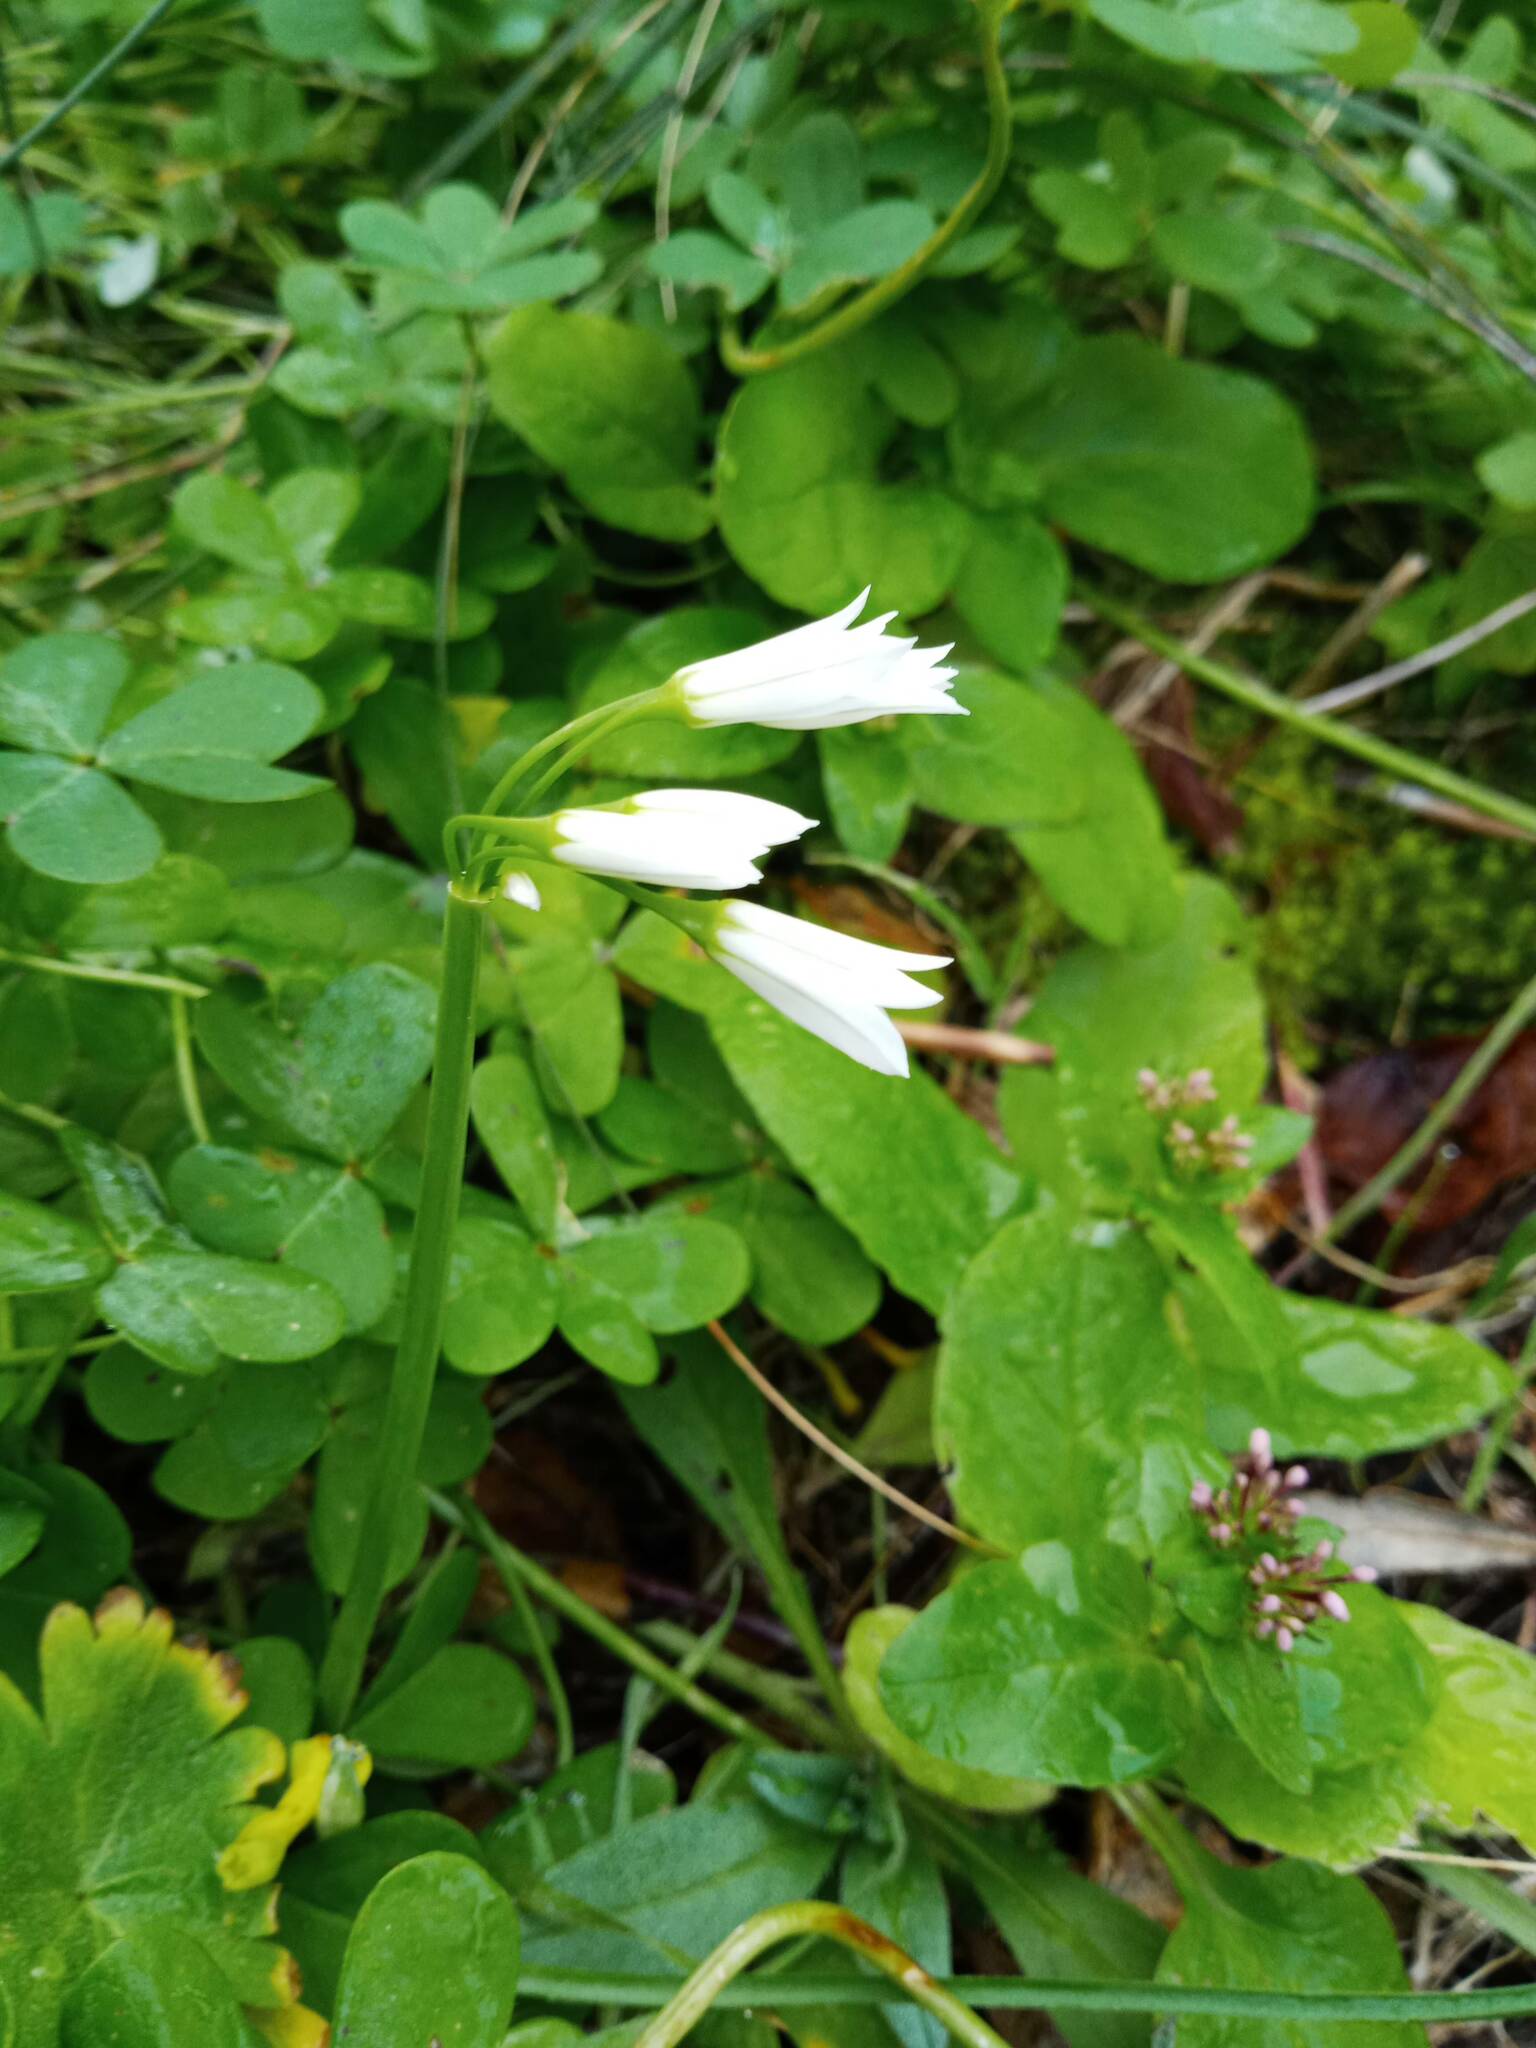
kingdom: Plantae
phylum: Tracheophyta
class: Liliopsida
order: Asparagales
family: Amaryllidaceae
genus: Allium
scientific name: Allium triquetrum
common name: Three-cornered garlic
